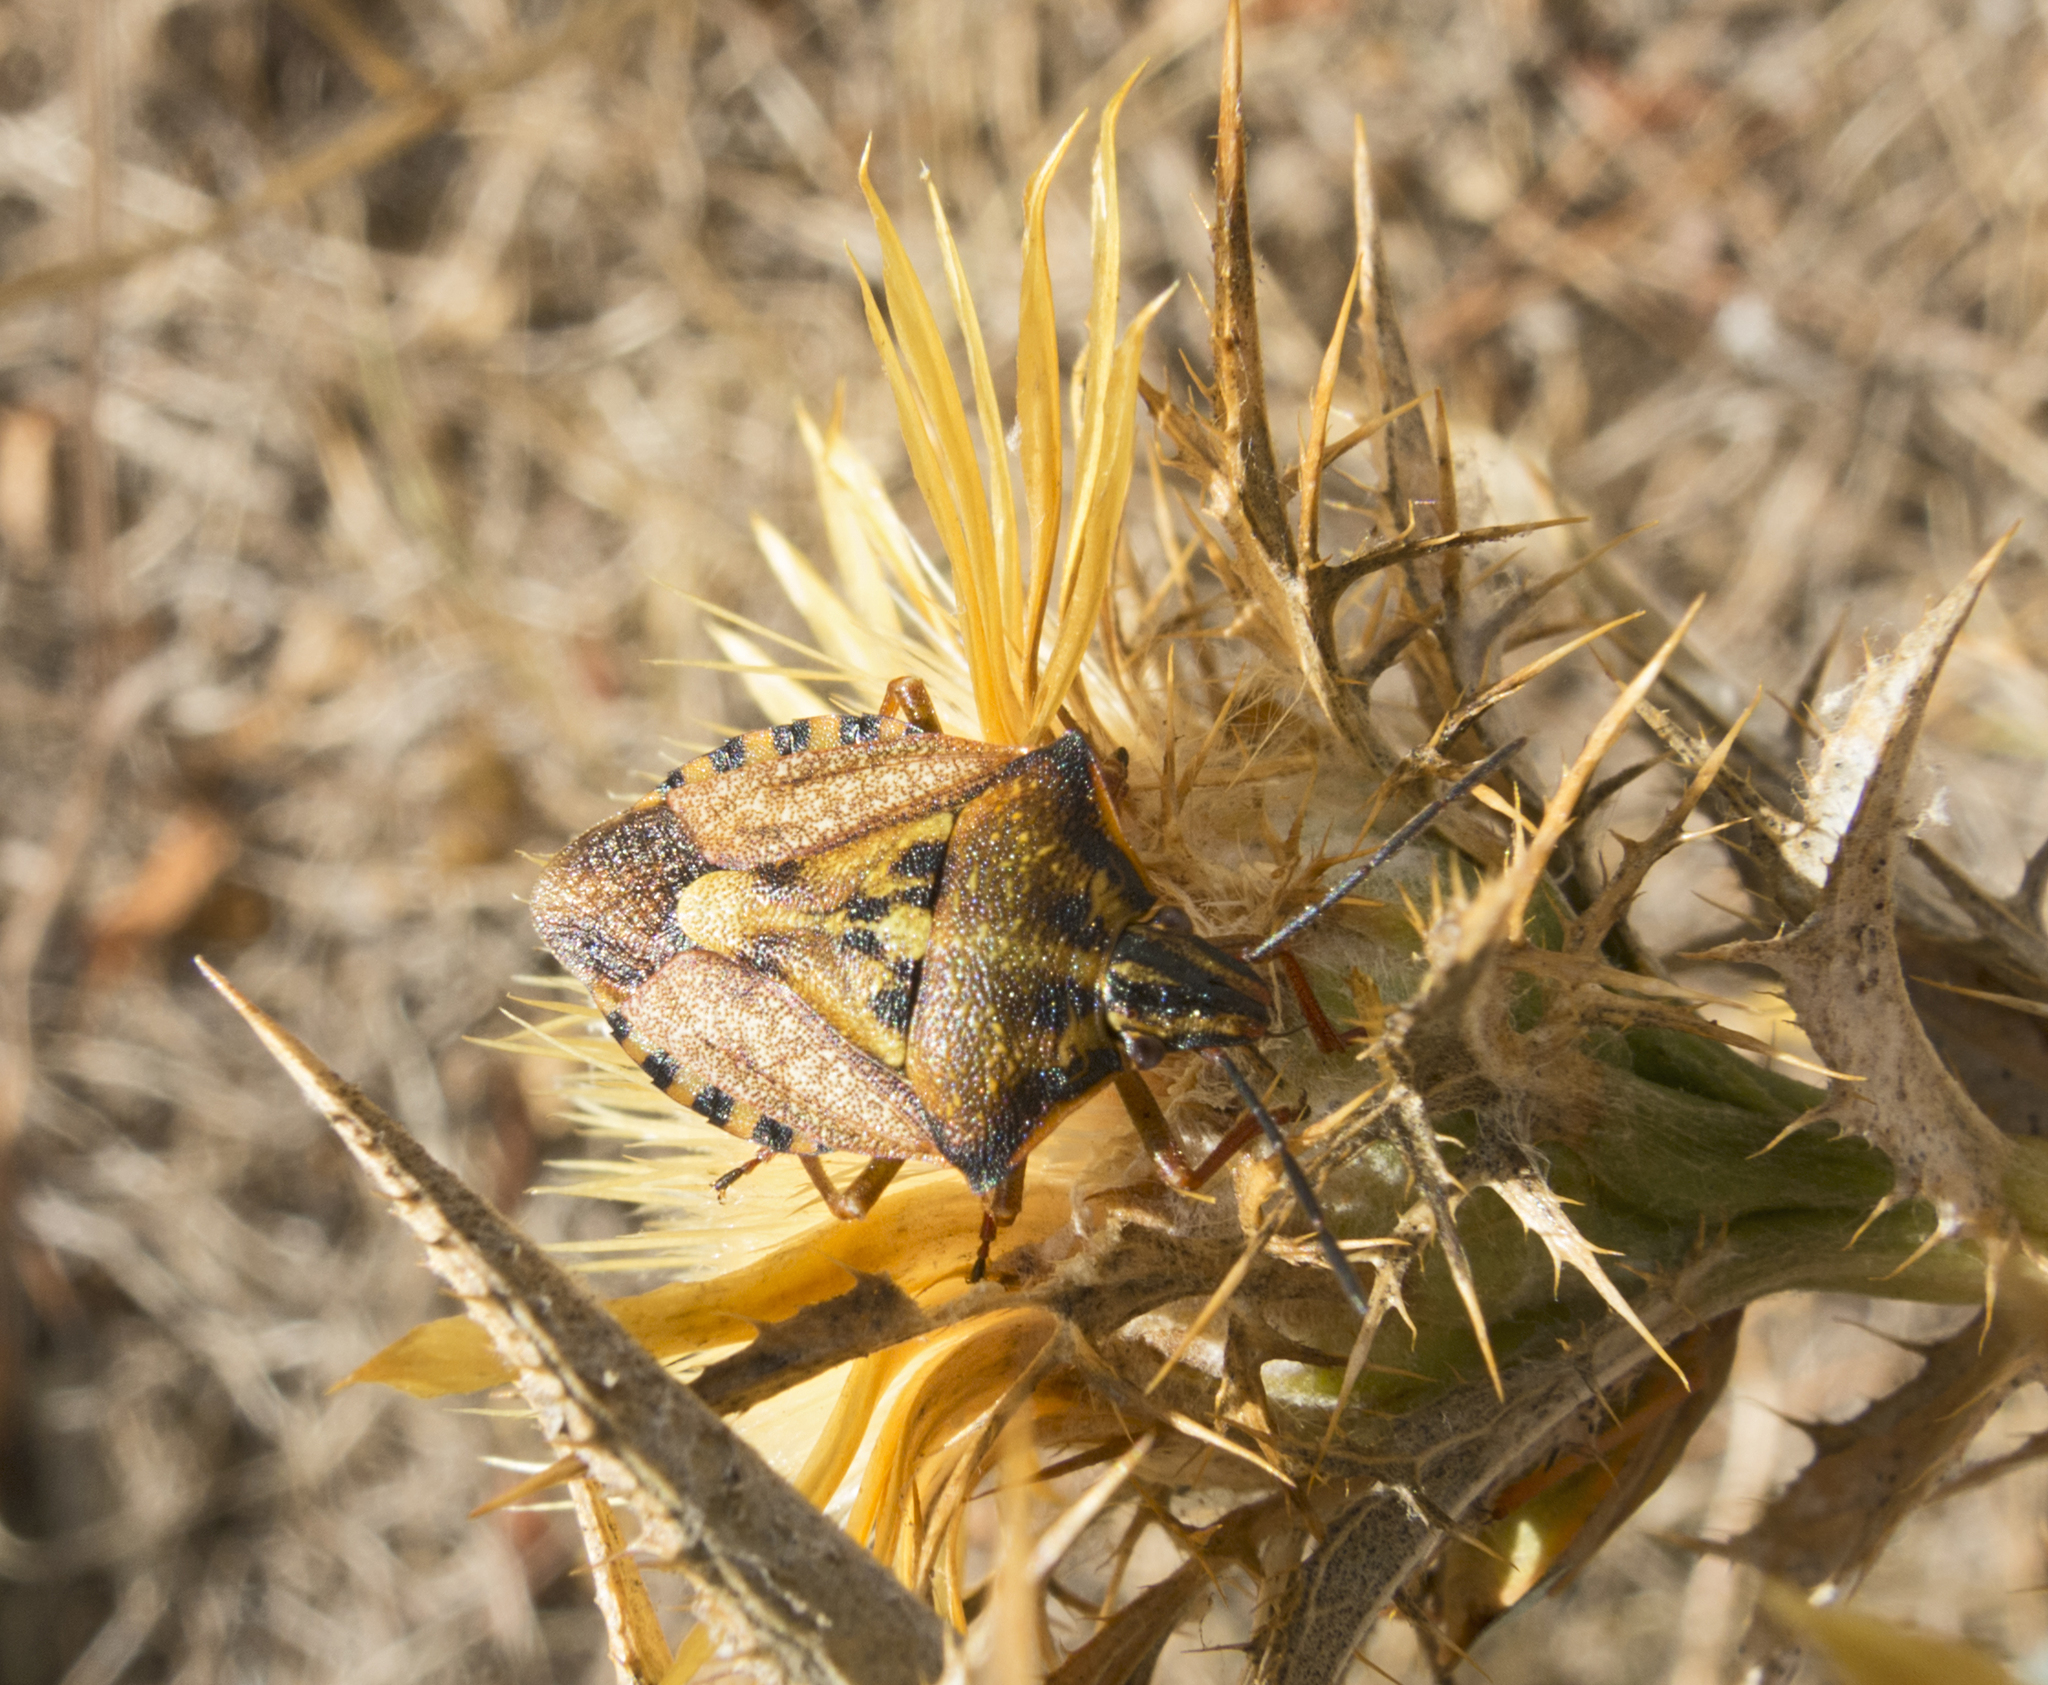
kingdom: Animalia
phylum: Arthropoda
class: Insecta
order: Hemiptera
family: Pentatomidae
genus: Carpocoris
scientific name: Carpocoris mediterraneus
